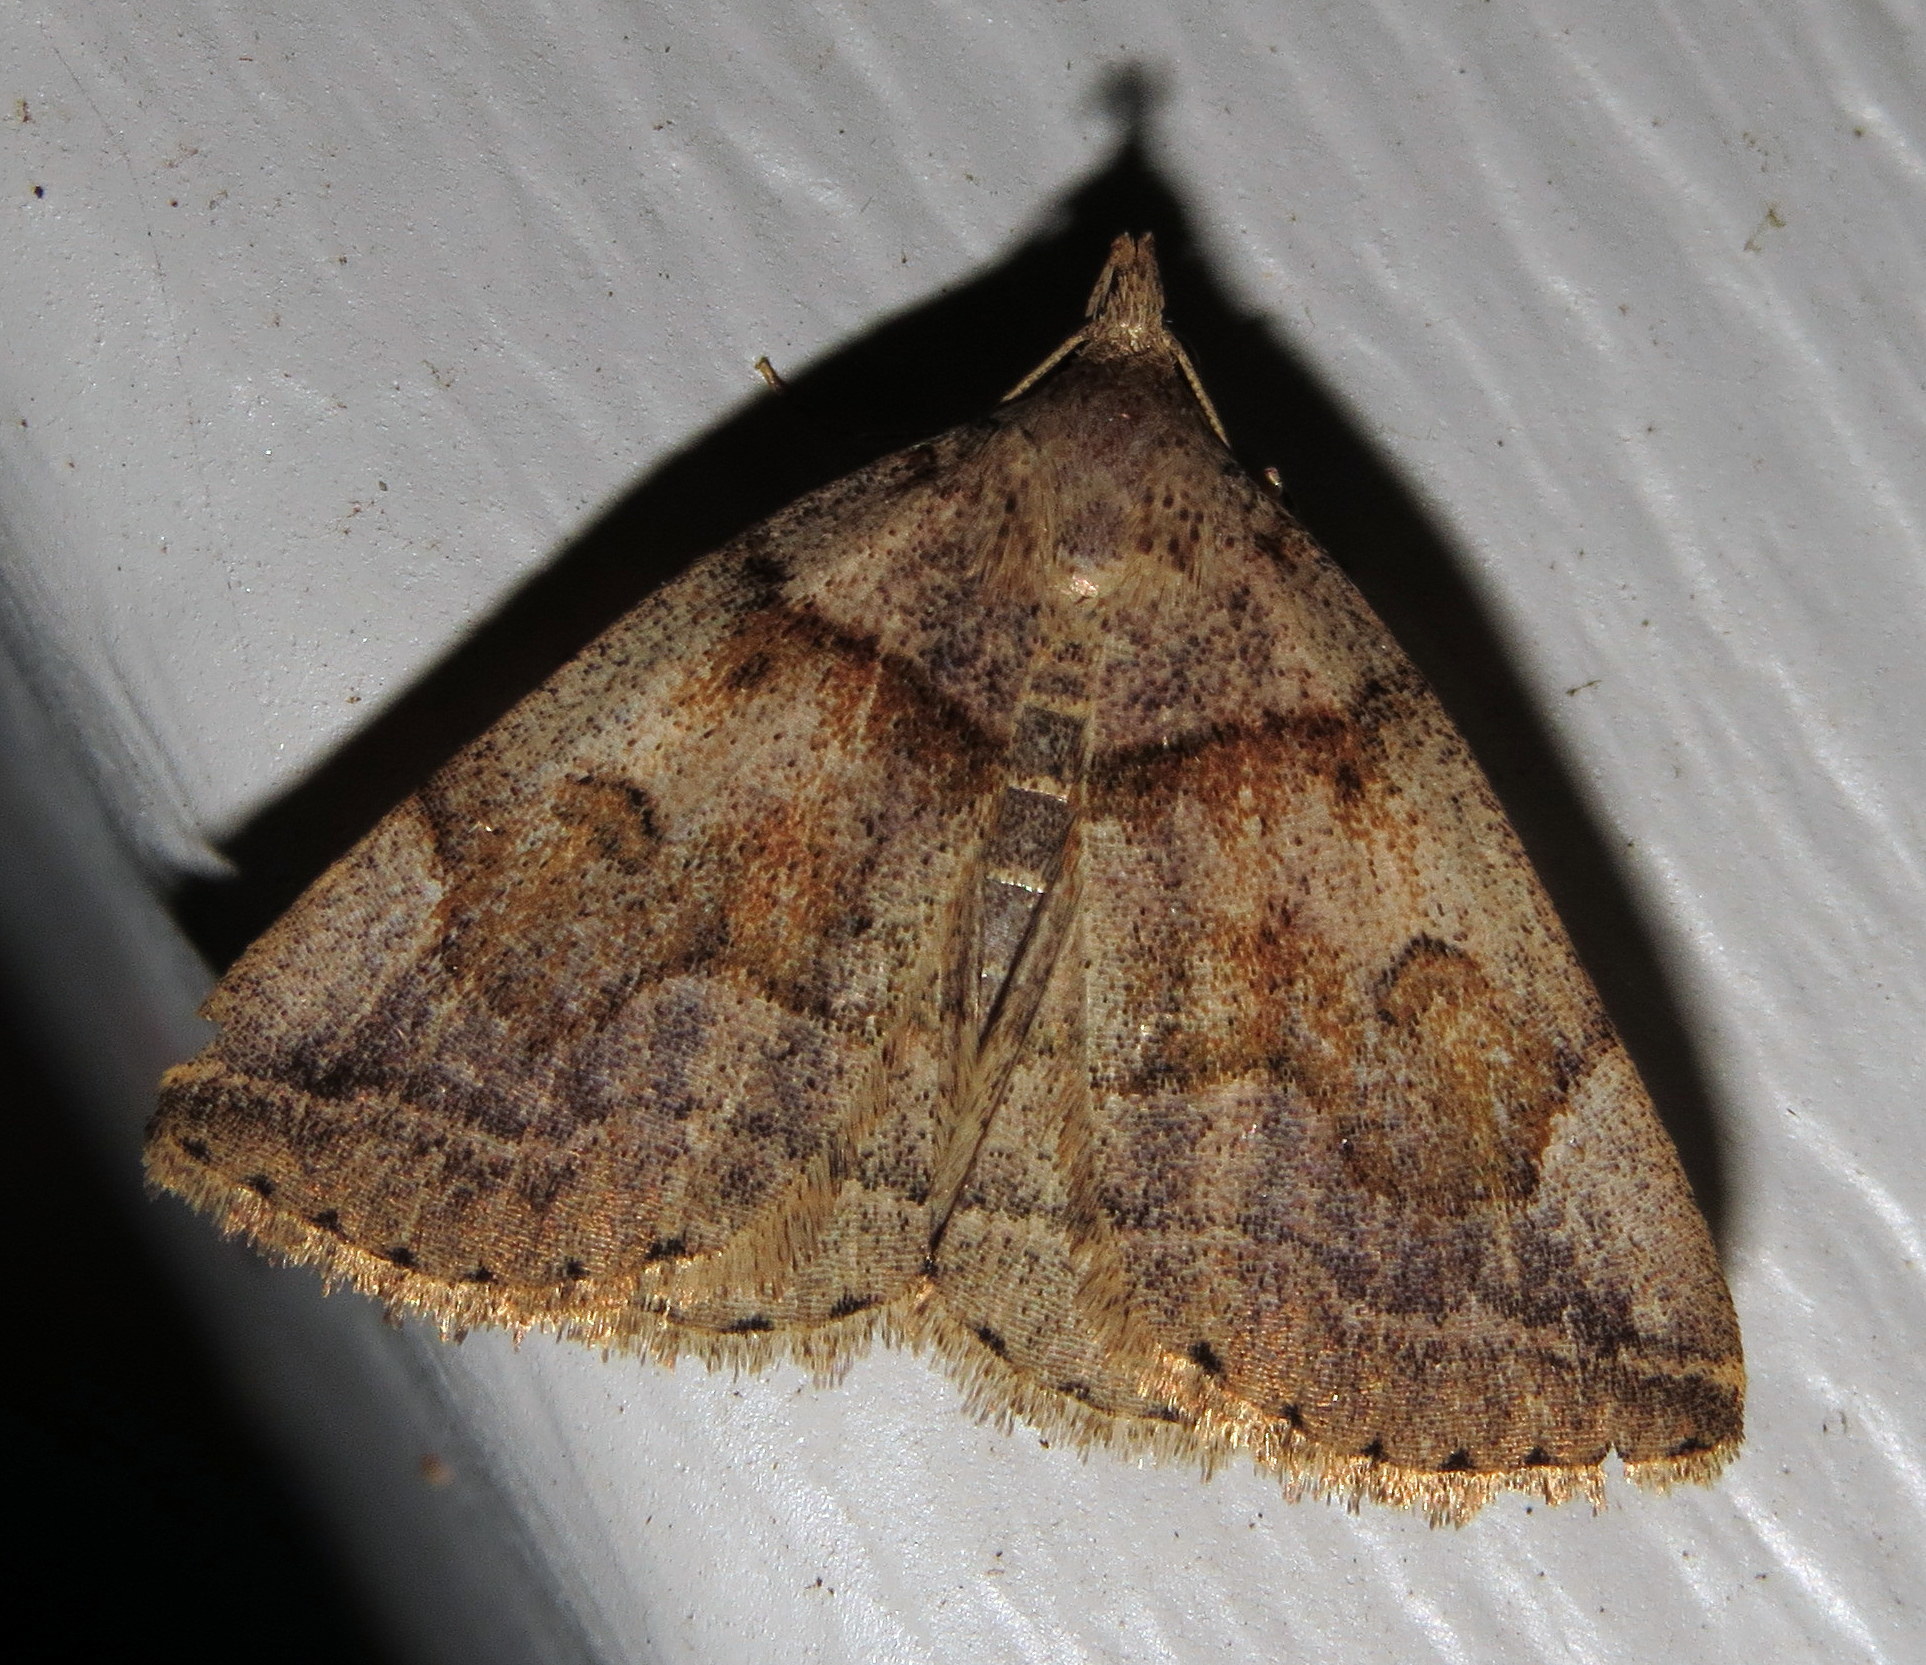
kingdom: Animalia
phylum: Arthropoda
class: Insecta
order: Lepidoptera
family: Erebidae
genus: Zanclognatha
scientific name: Zanclognatha laevigata
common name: Variable fan-foot
